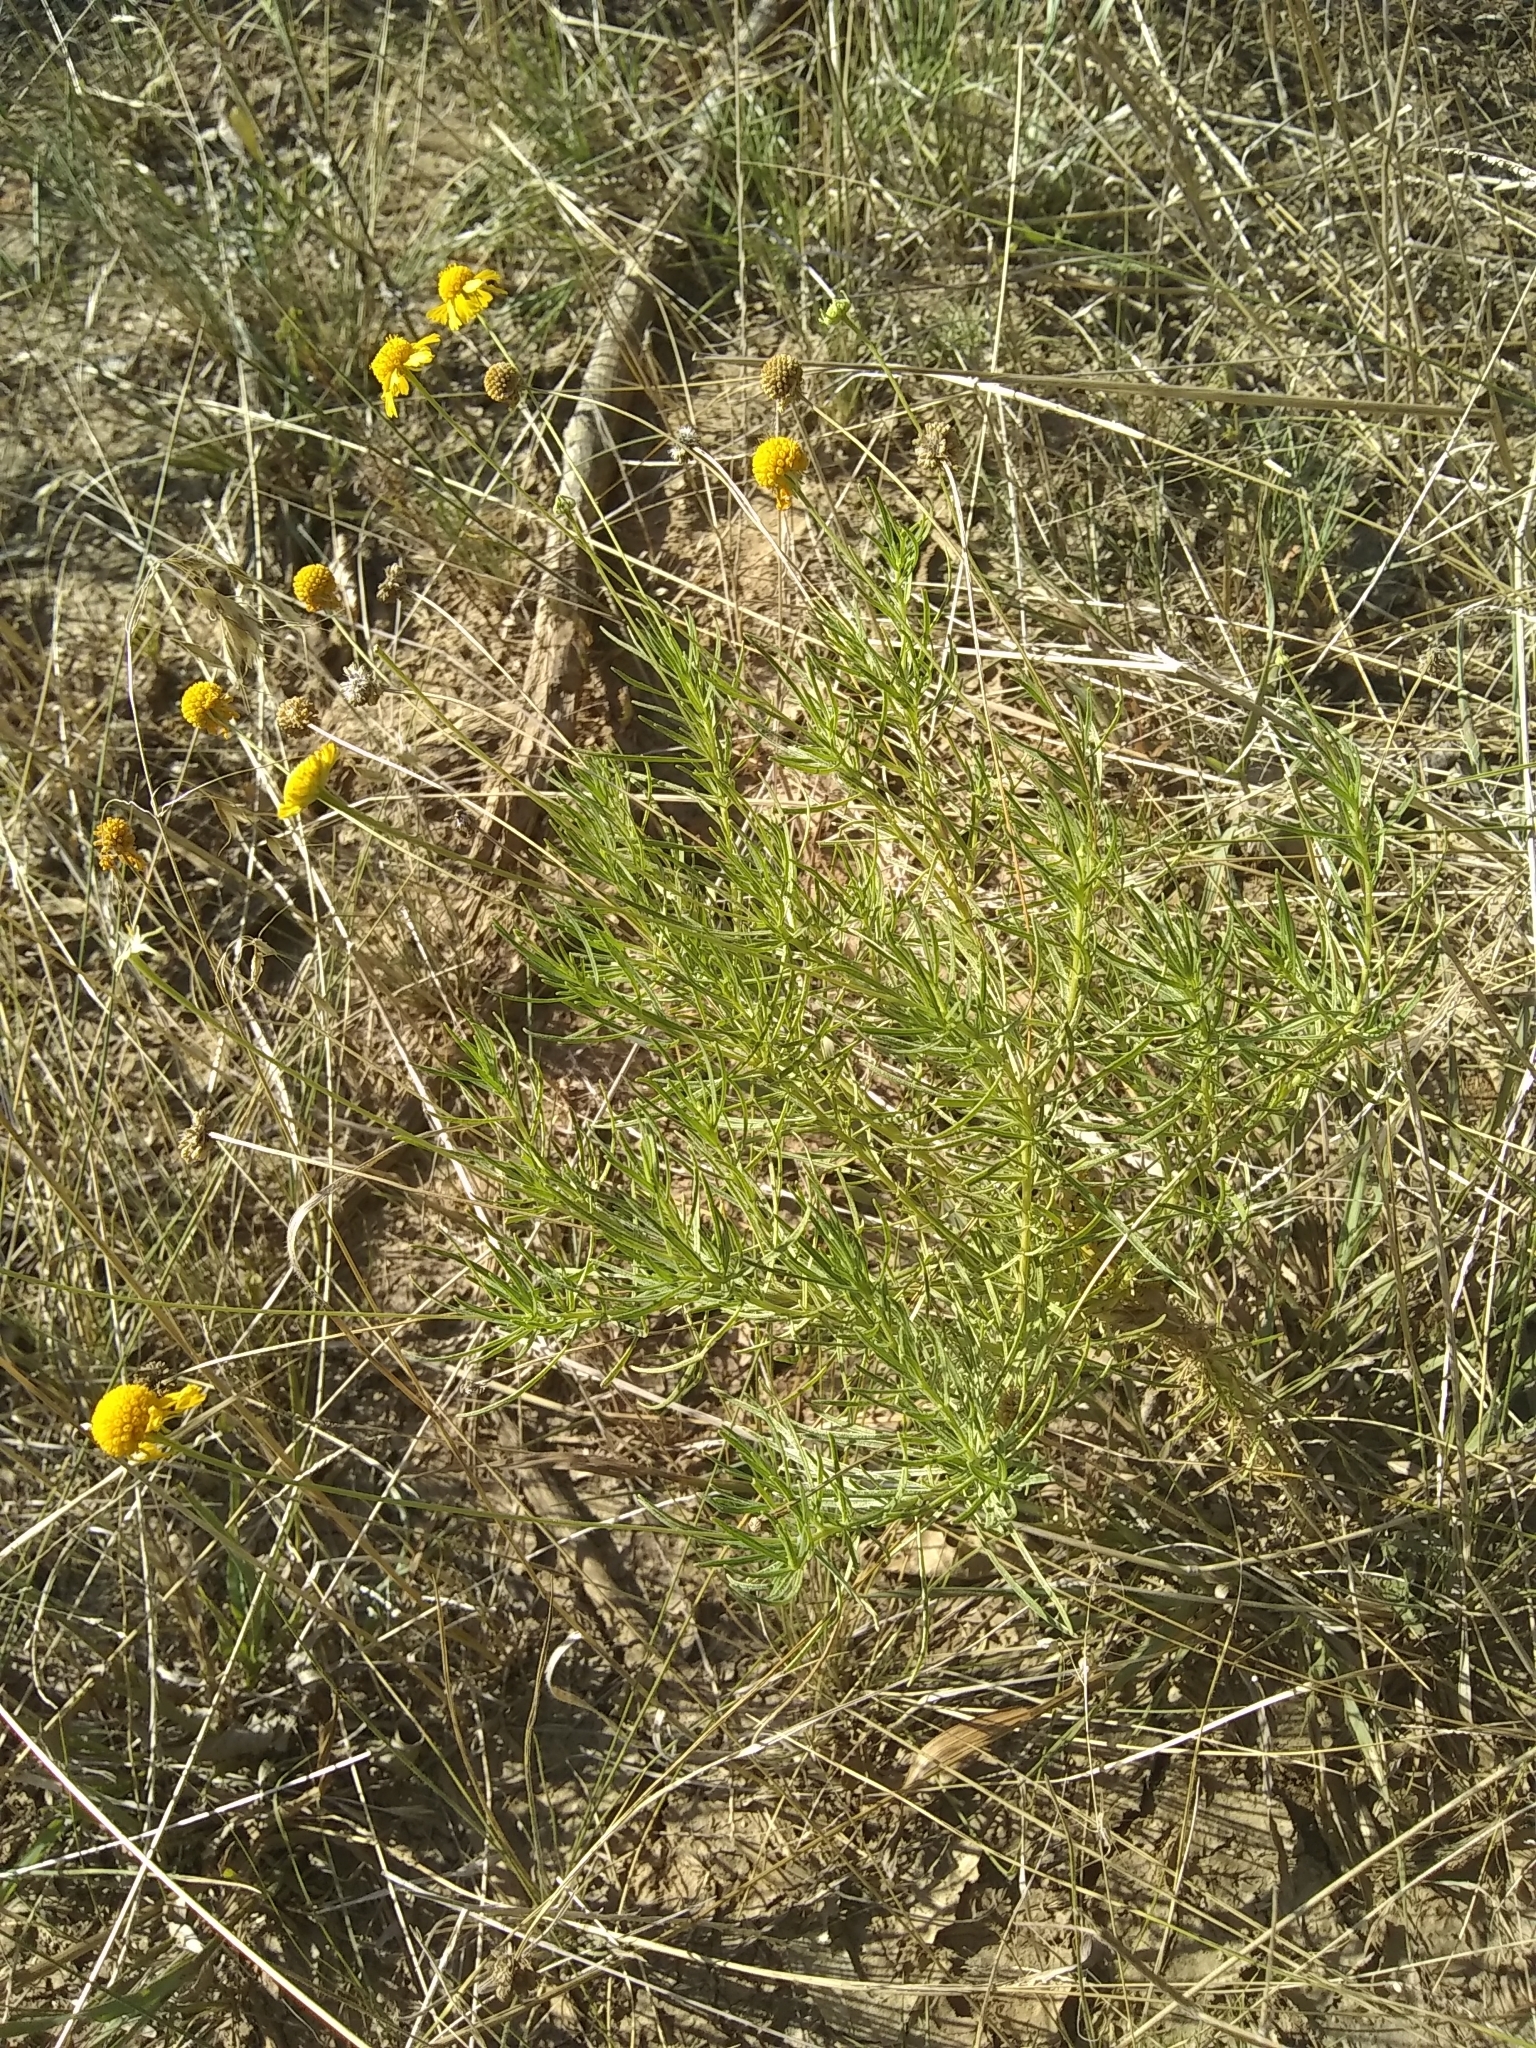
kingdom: Plantae
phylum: Tracheophyta
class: Magnoliopsida
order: Asterales
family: Asteraceae
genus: Helenium
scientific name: Helenium amarum
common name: Bitter sneezeweed
